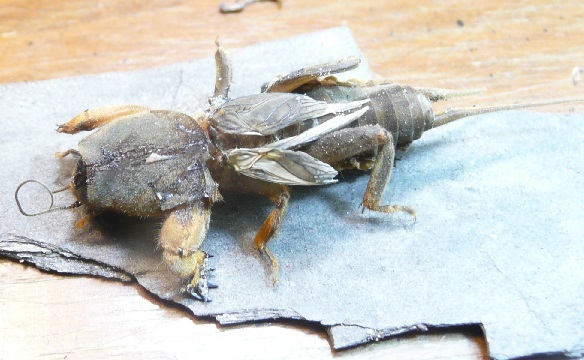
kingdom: Animalia
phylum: Arthropoda
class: Insecta
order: Orthoptera
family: Gryllotalpidae
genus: Neocurtilla
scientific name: Neocurtilla hexadactyla
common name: Northern mole cricket
